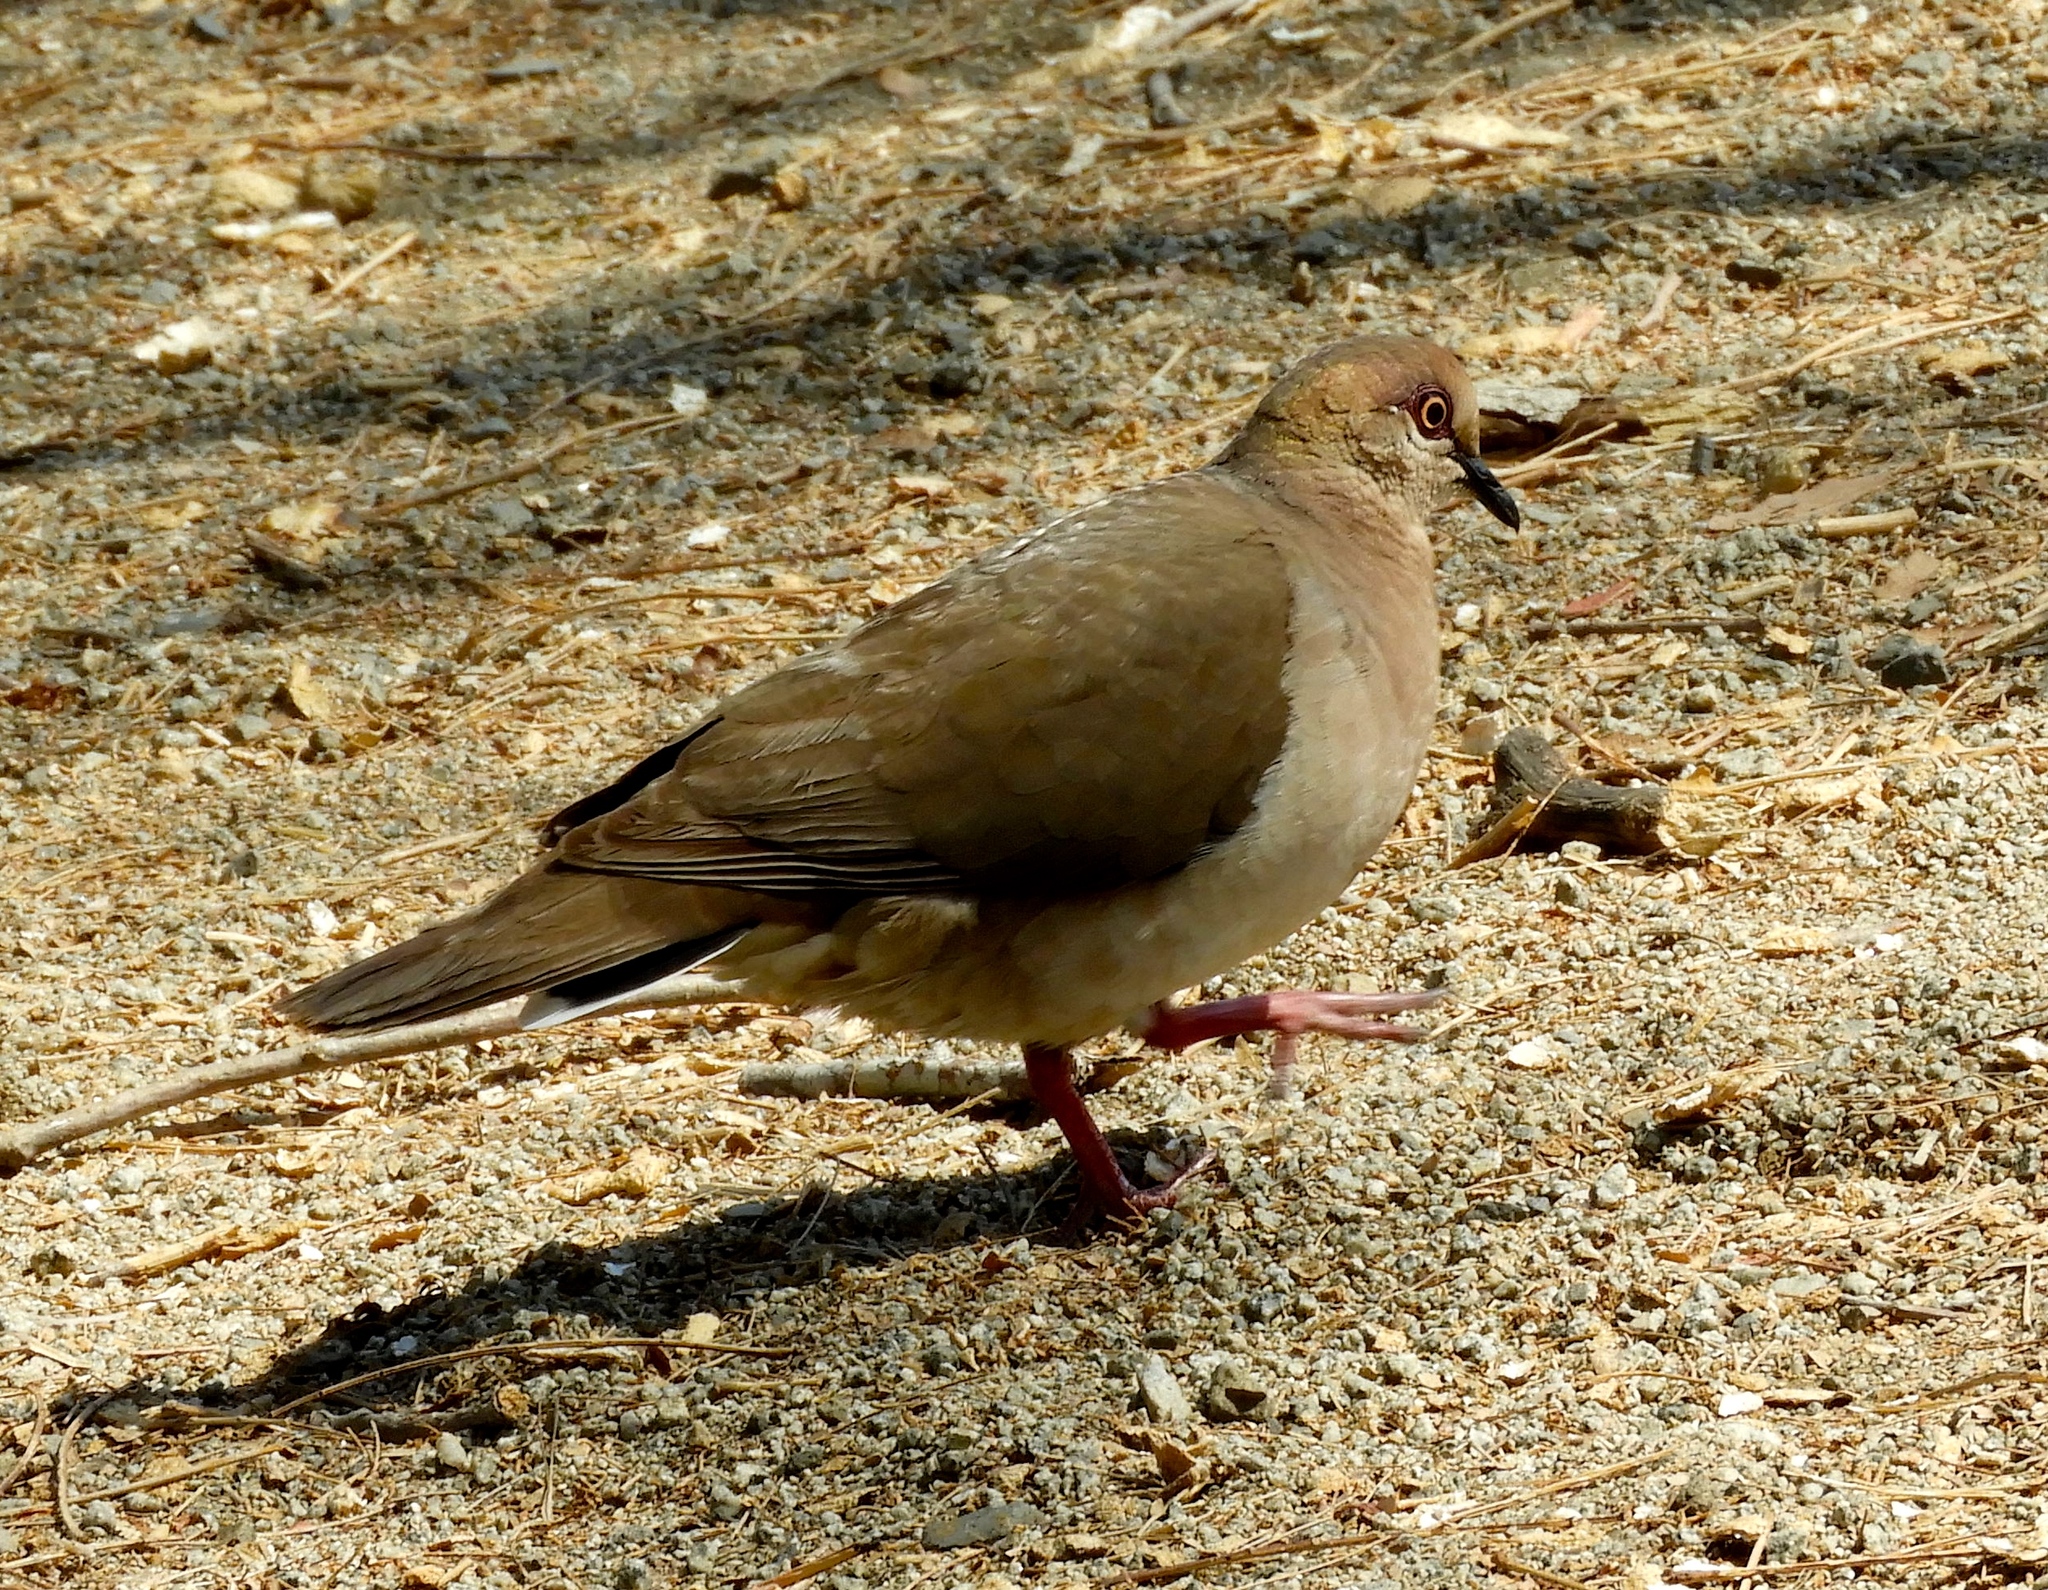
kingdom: Animalia
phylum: Chordata
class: Aves
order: Columbiformes
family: Columbidae
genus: Leptotila
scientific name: Leptotila verreauxi
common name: White-tipped dove
